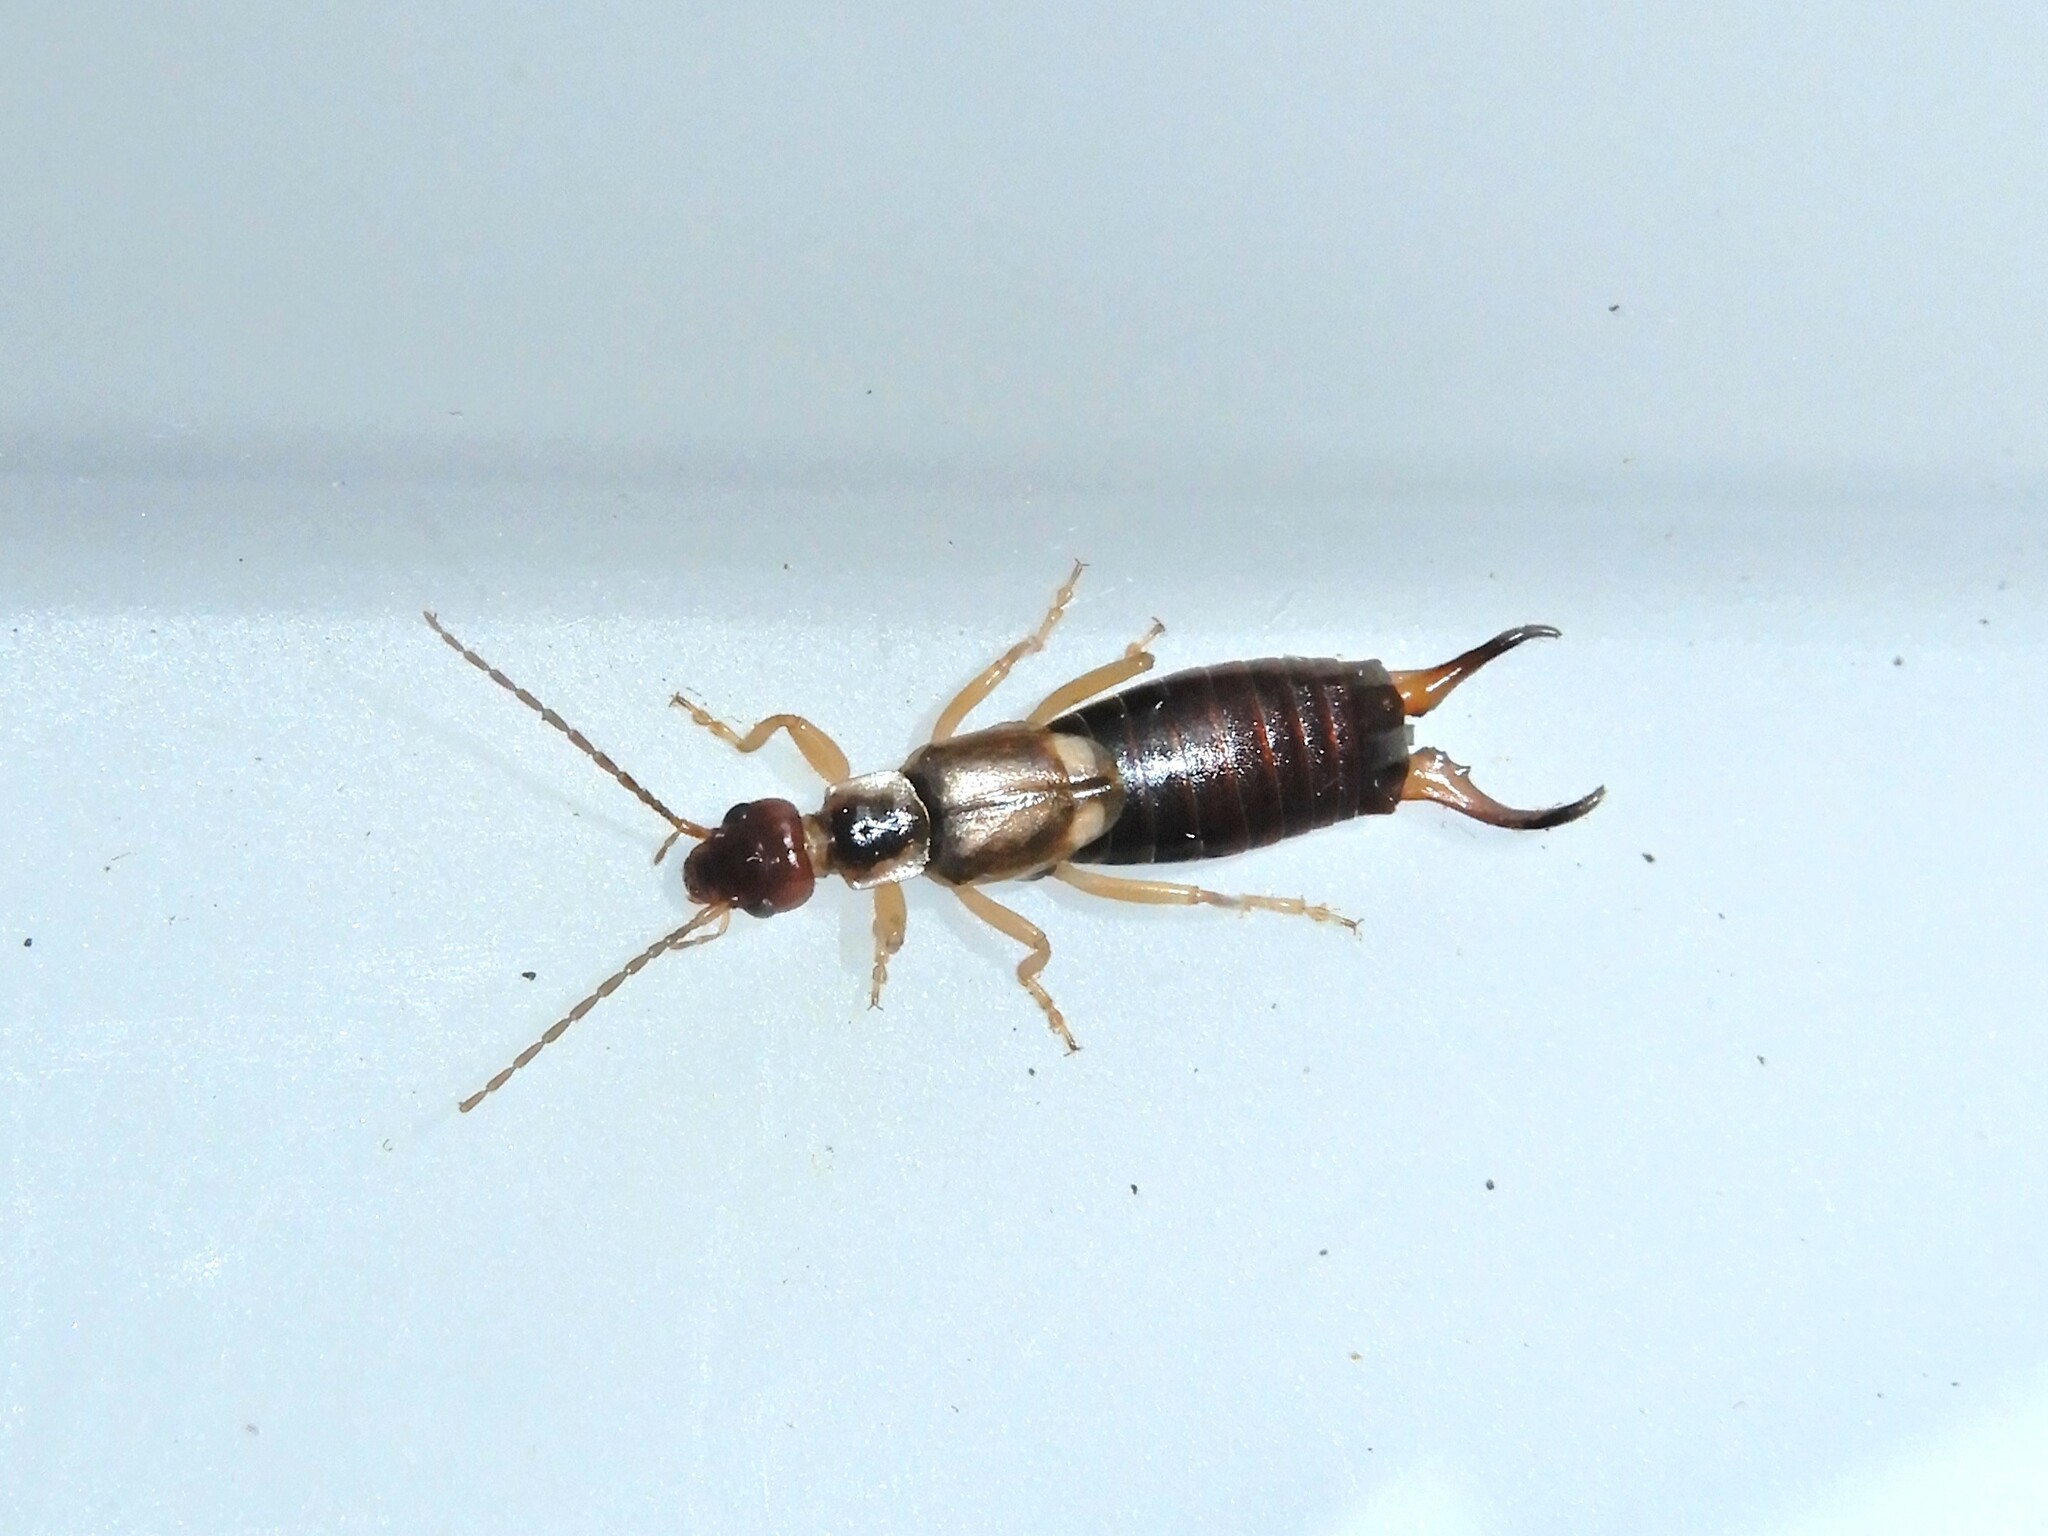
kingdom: Animalia
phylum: Arthropoda
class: Insecta
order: Dermaptera
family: Forficulidae
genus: Forficula
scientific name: Forficula dentata
